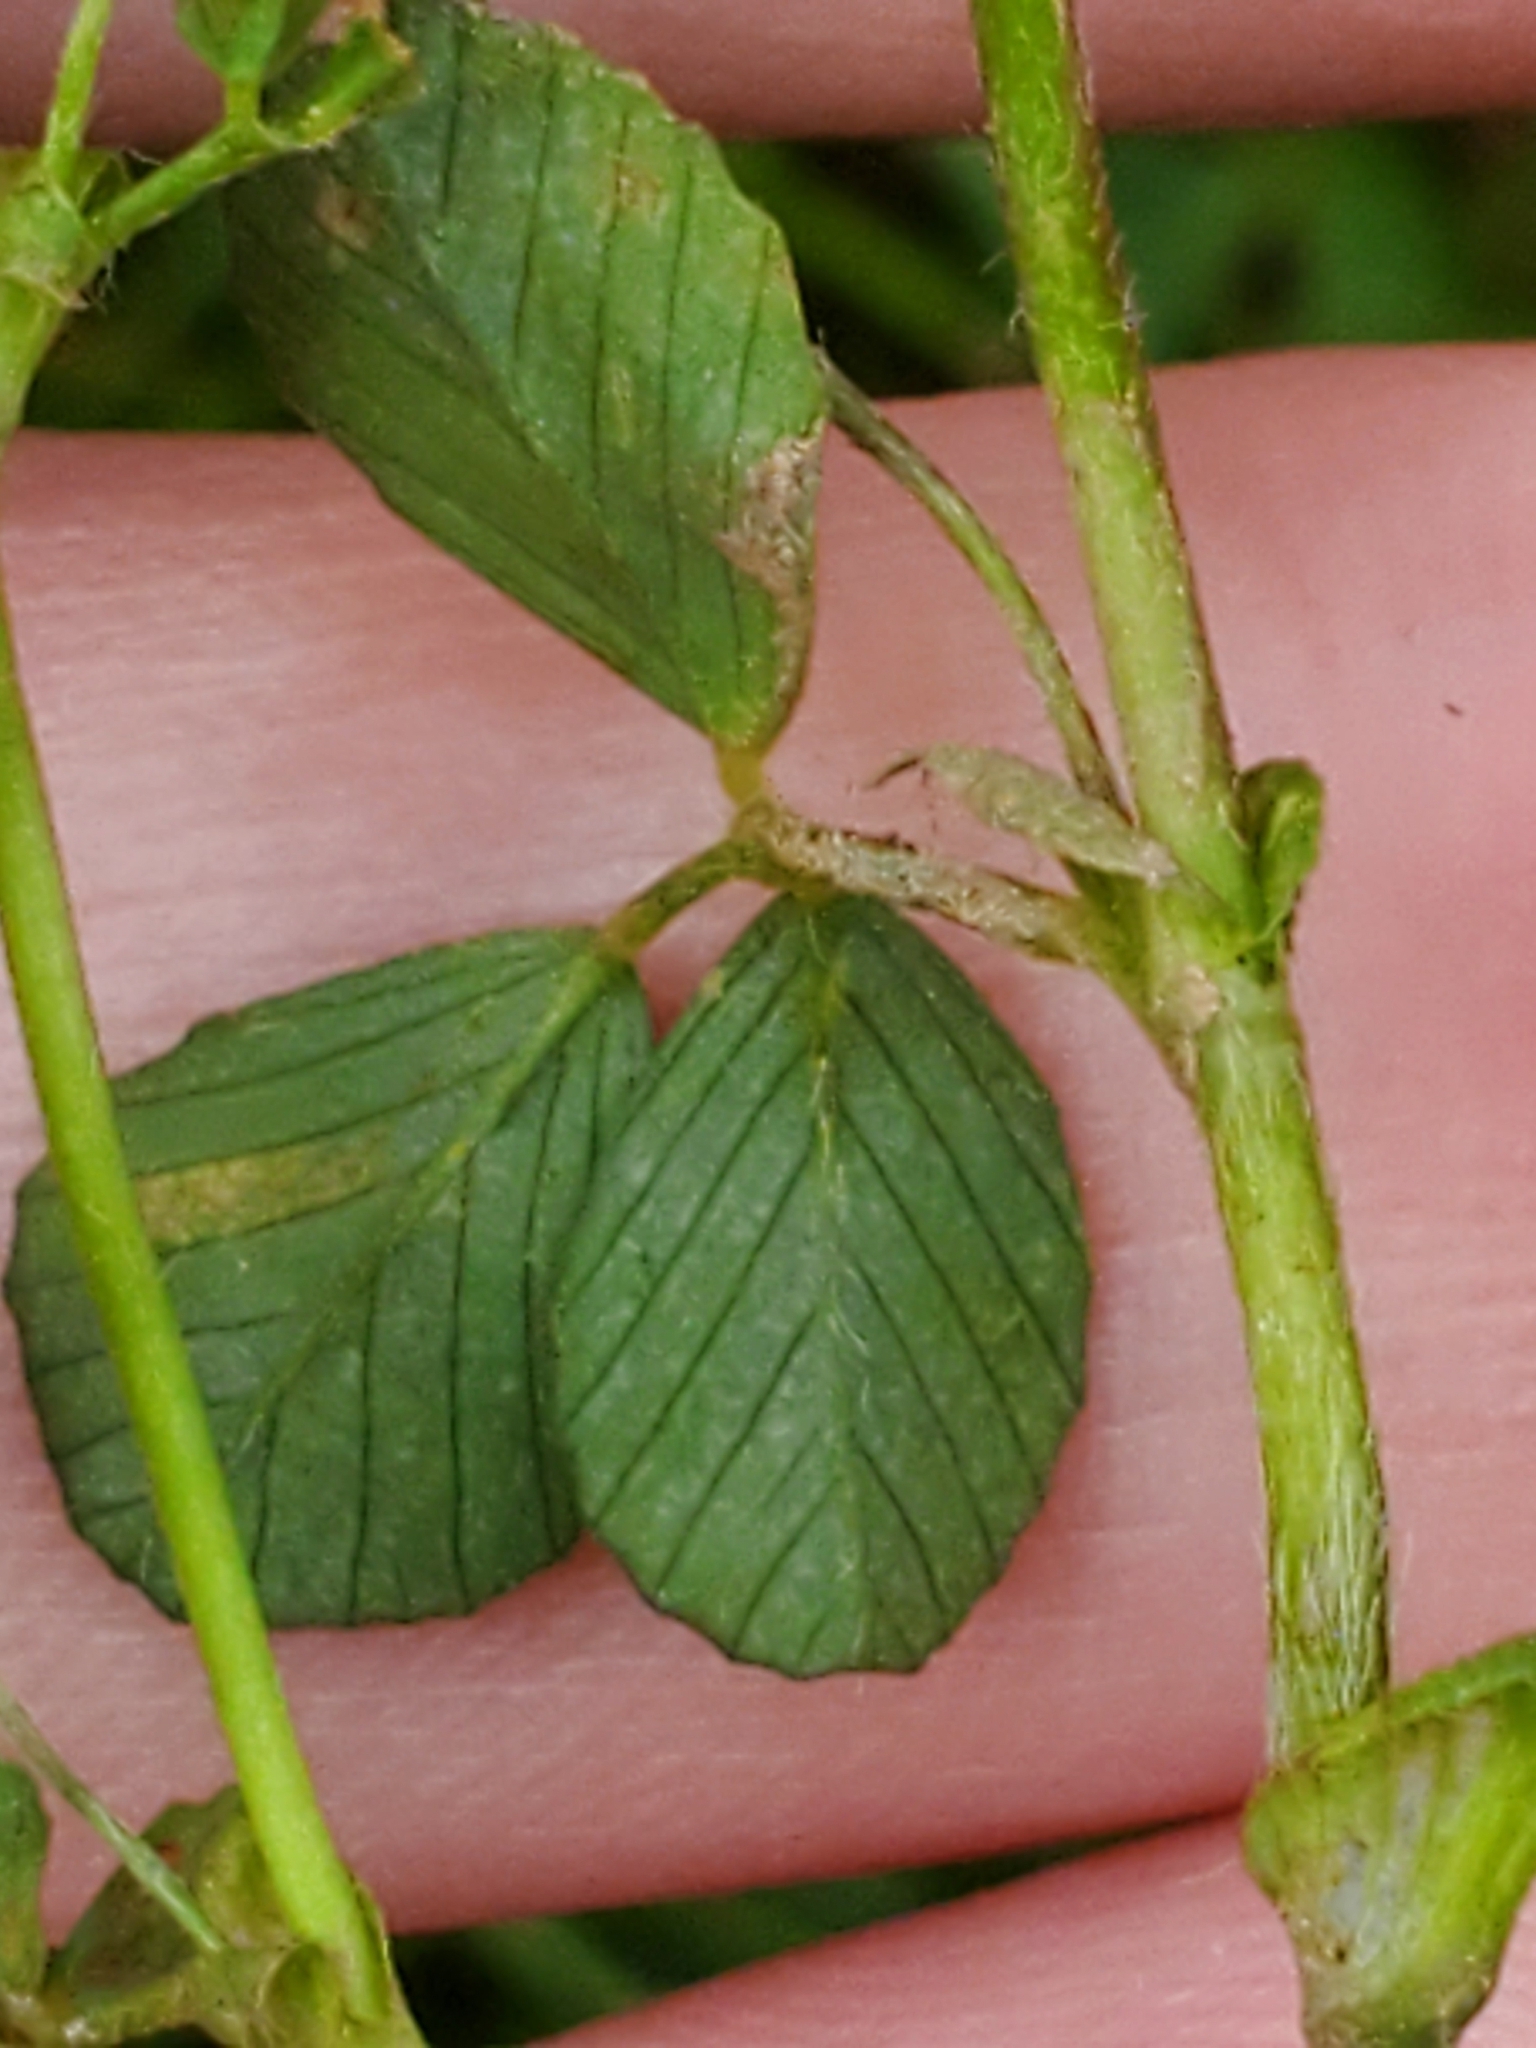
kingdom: Plantae
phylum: Tracheophyta
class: Magnoliopsida
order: Fabales
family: Fabaceae
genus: Trifolium
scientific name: Trifolium dubium
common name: Suckling clover
